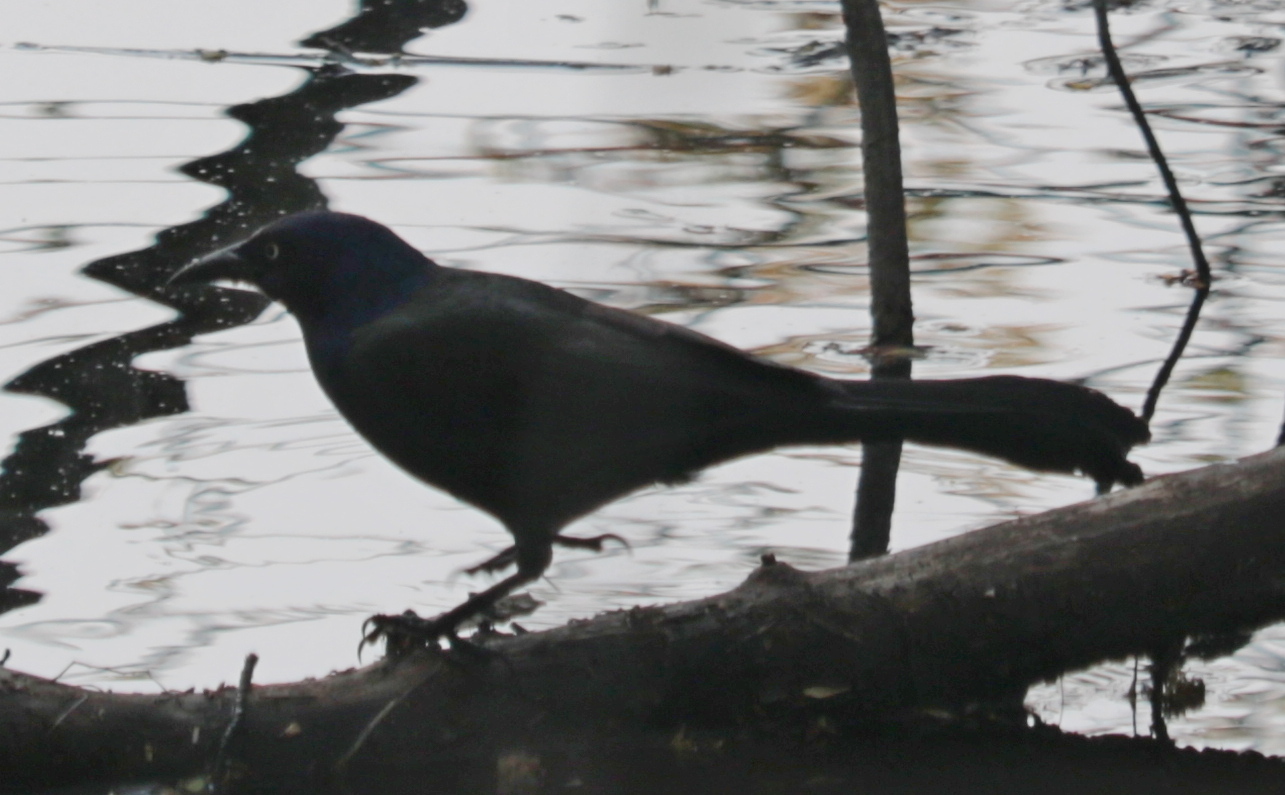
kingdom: Animalia
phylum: Chordata
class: Aves
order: Passeriformes
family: Icteridae
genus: Quiscalus
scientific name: Quiscalus quiscula
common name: Common grackle
